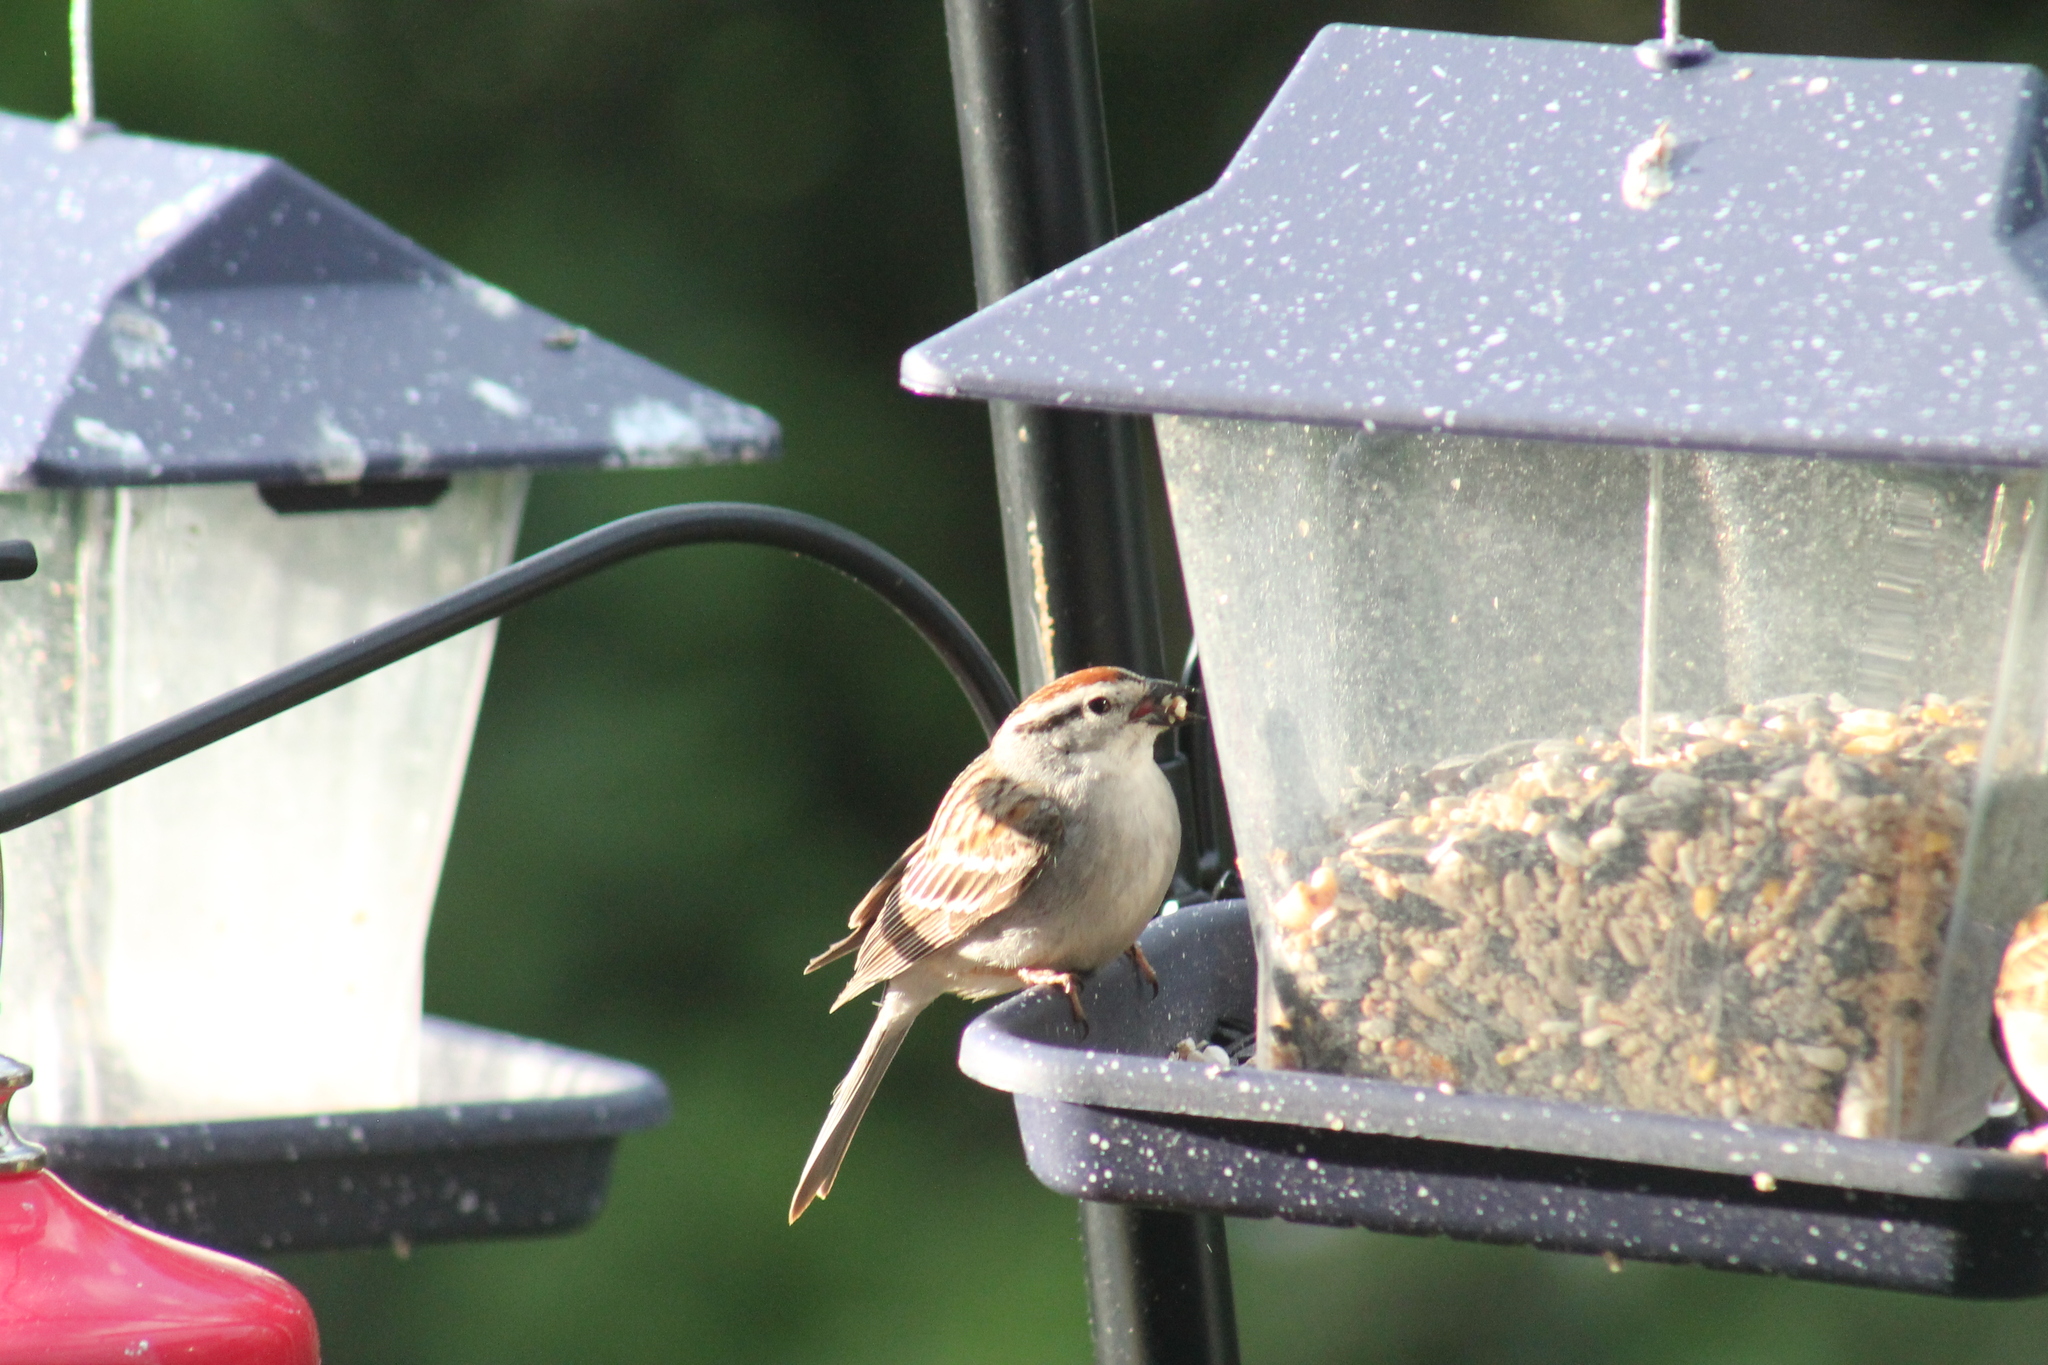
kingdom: Animalia
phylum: Chordata
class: Aves
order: Passeriformes
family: Passerellidae
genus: Spizella
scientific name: Spizella passerina
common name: Chipping sparrow
